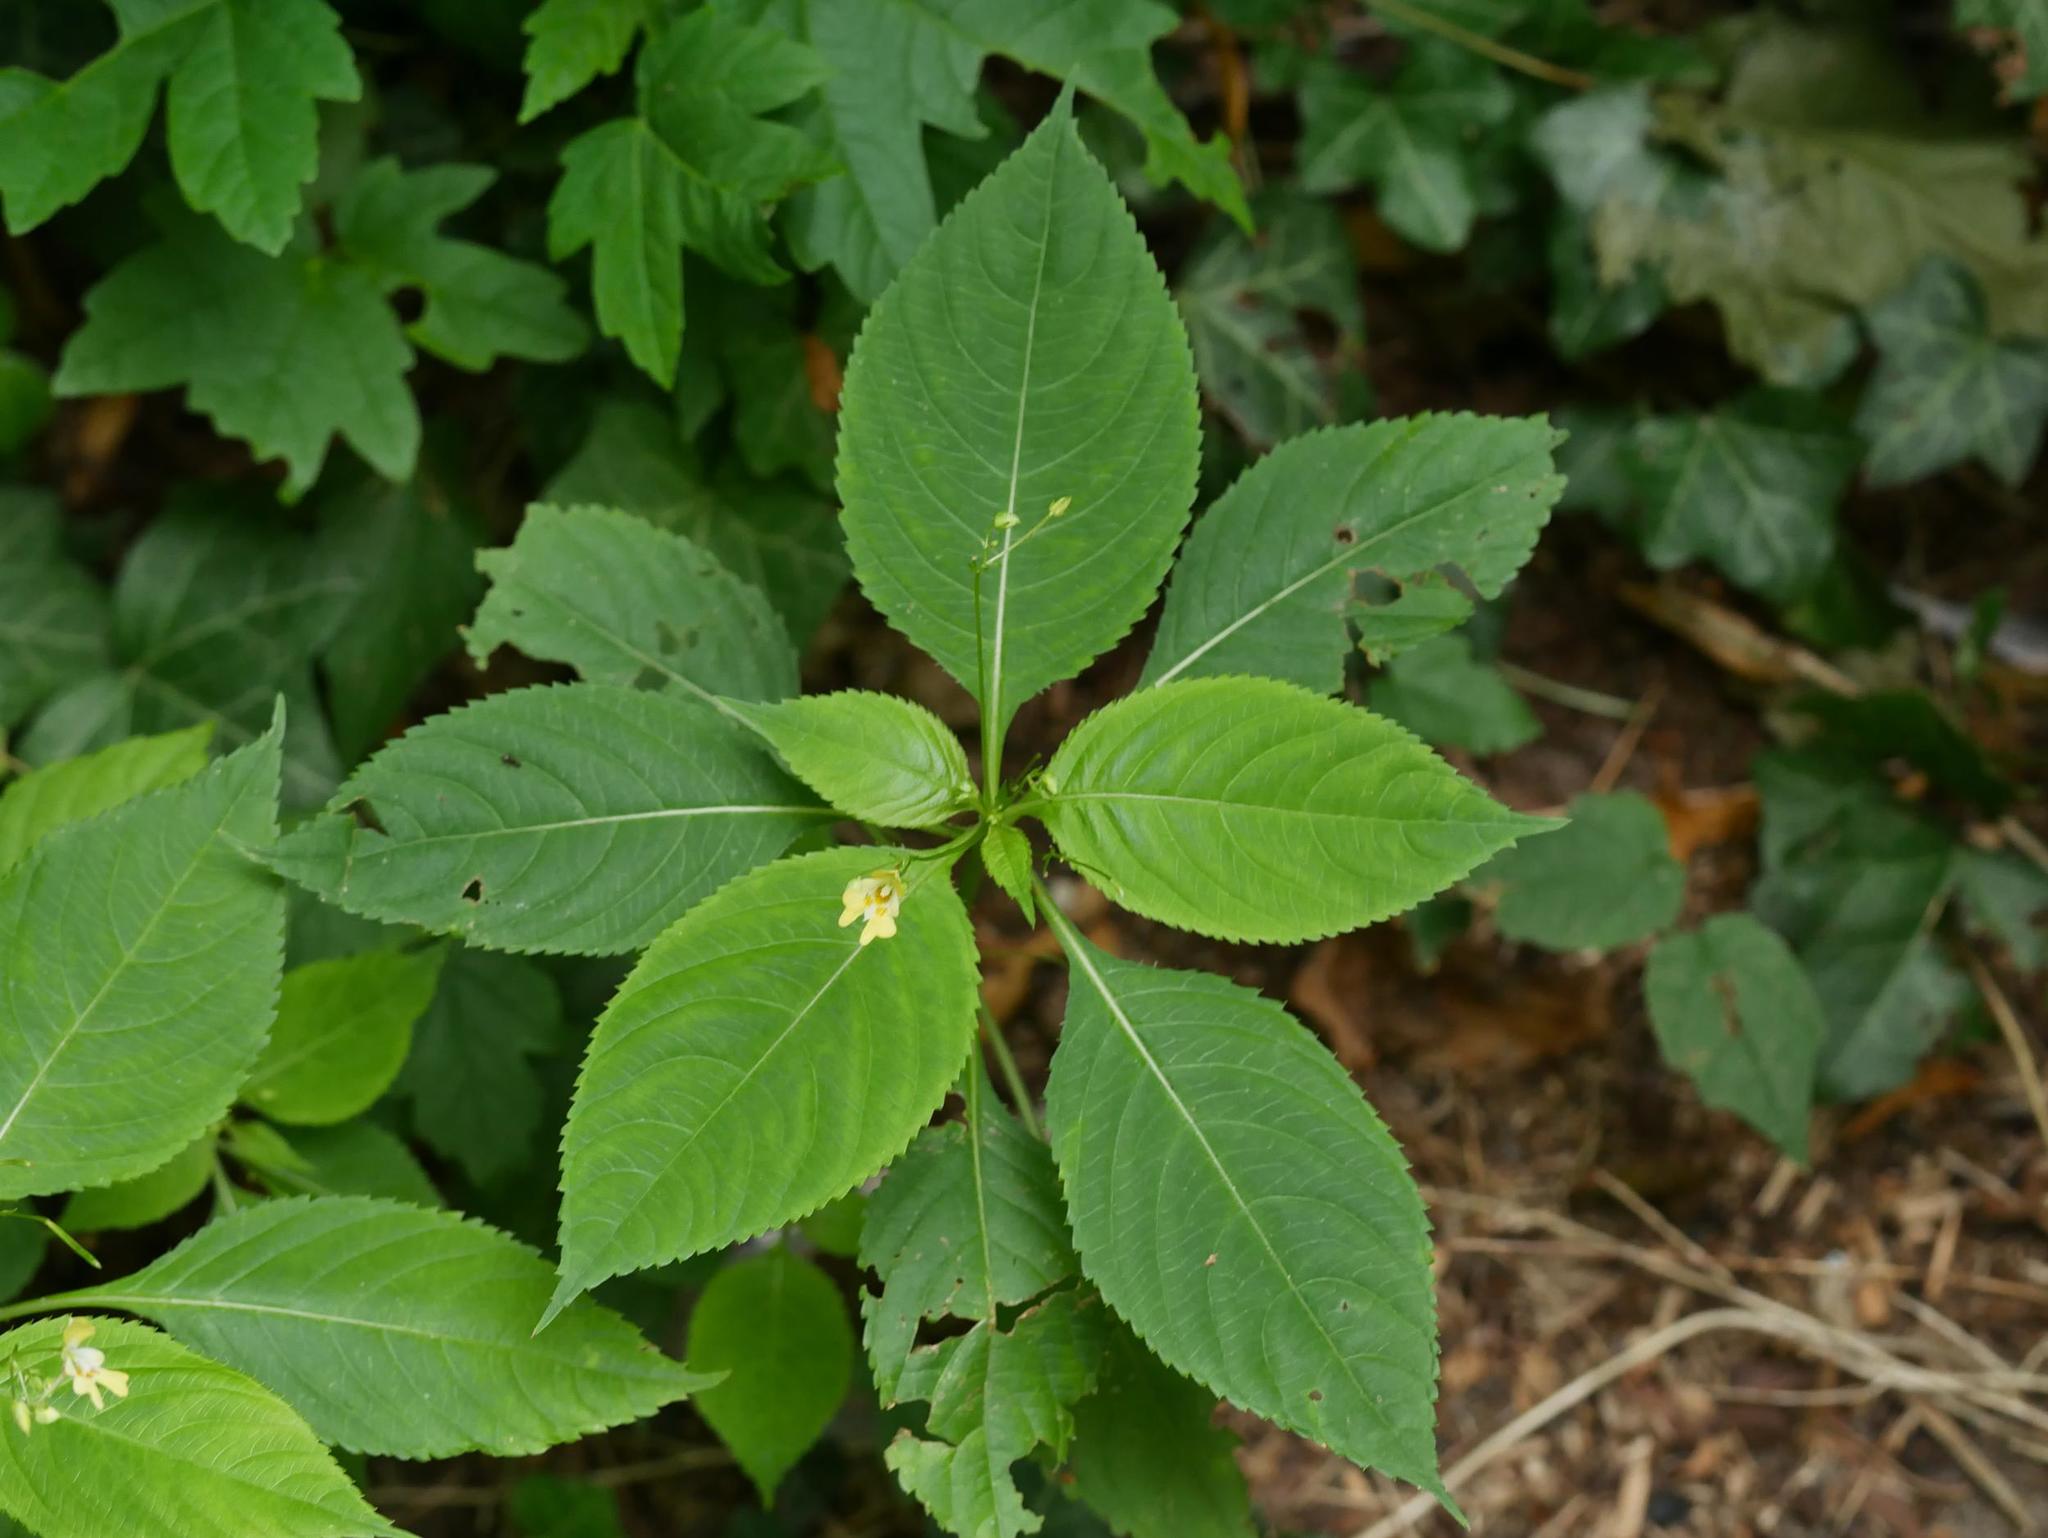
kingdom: Plantae
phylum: Tracheophyta
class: Magnoliopsida
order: Ericales
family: Balsaminaceae
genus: Impatiens
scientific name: Impatiens parviflora
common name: Small balsam
